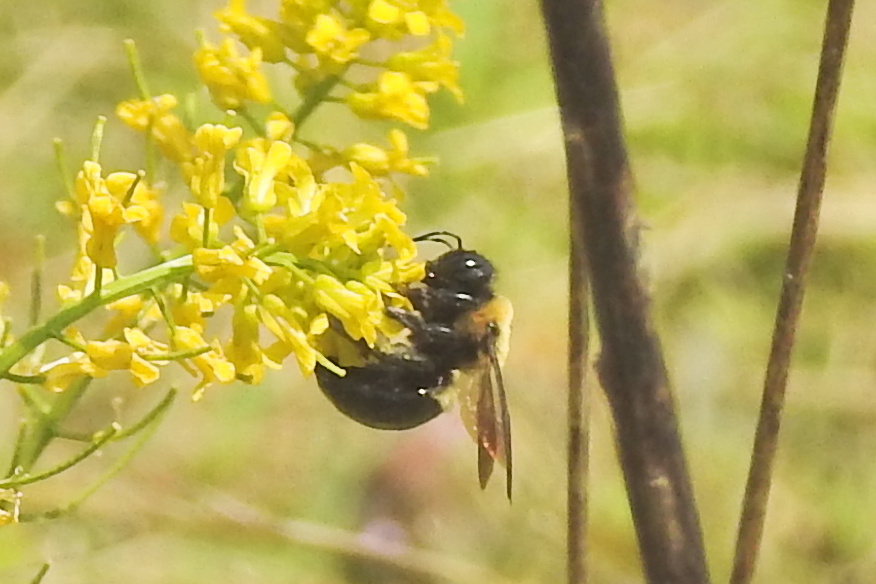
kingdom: Animalia
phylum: Arthropoda
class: Insecta
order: Hymenoptera
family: Apidae
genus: Xylocopa
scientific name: Xylocopa virginica
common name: Carpenter bee
